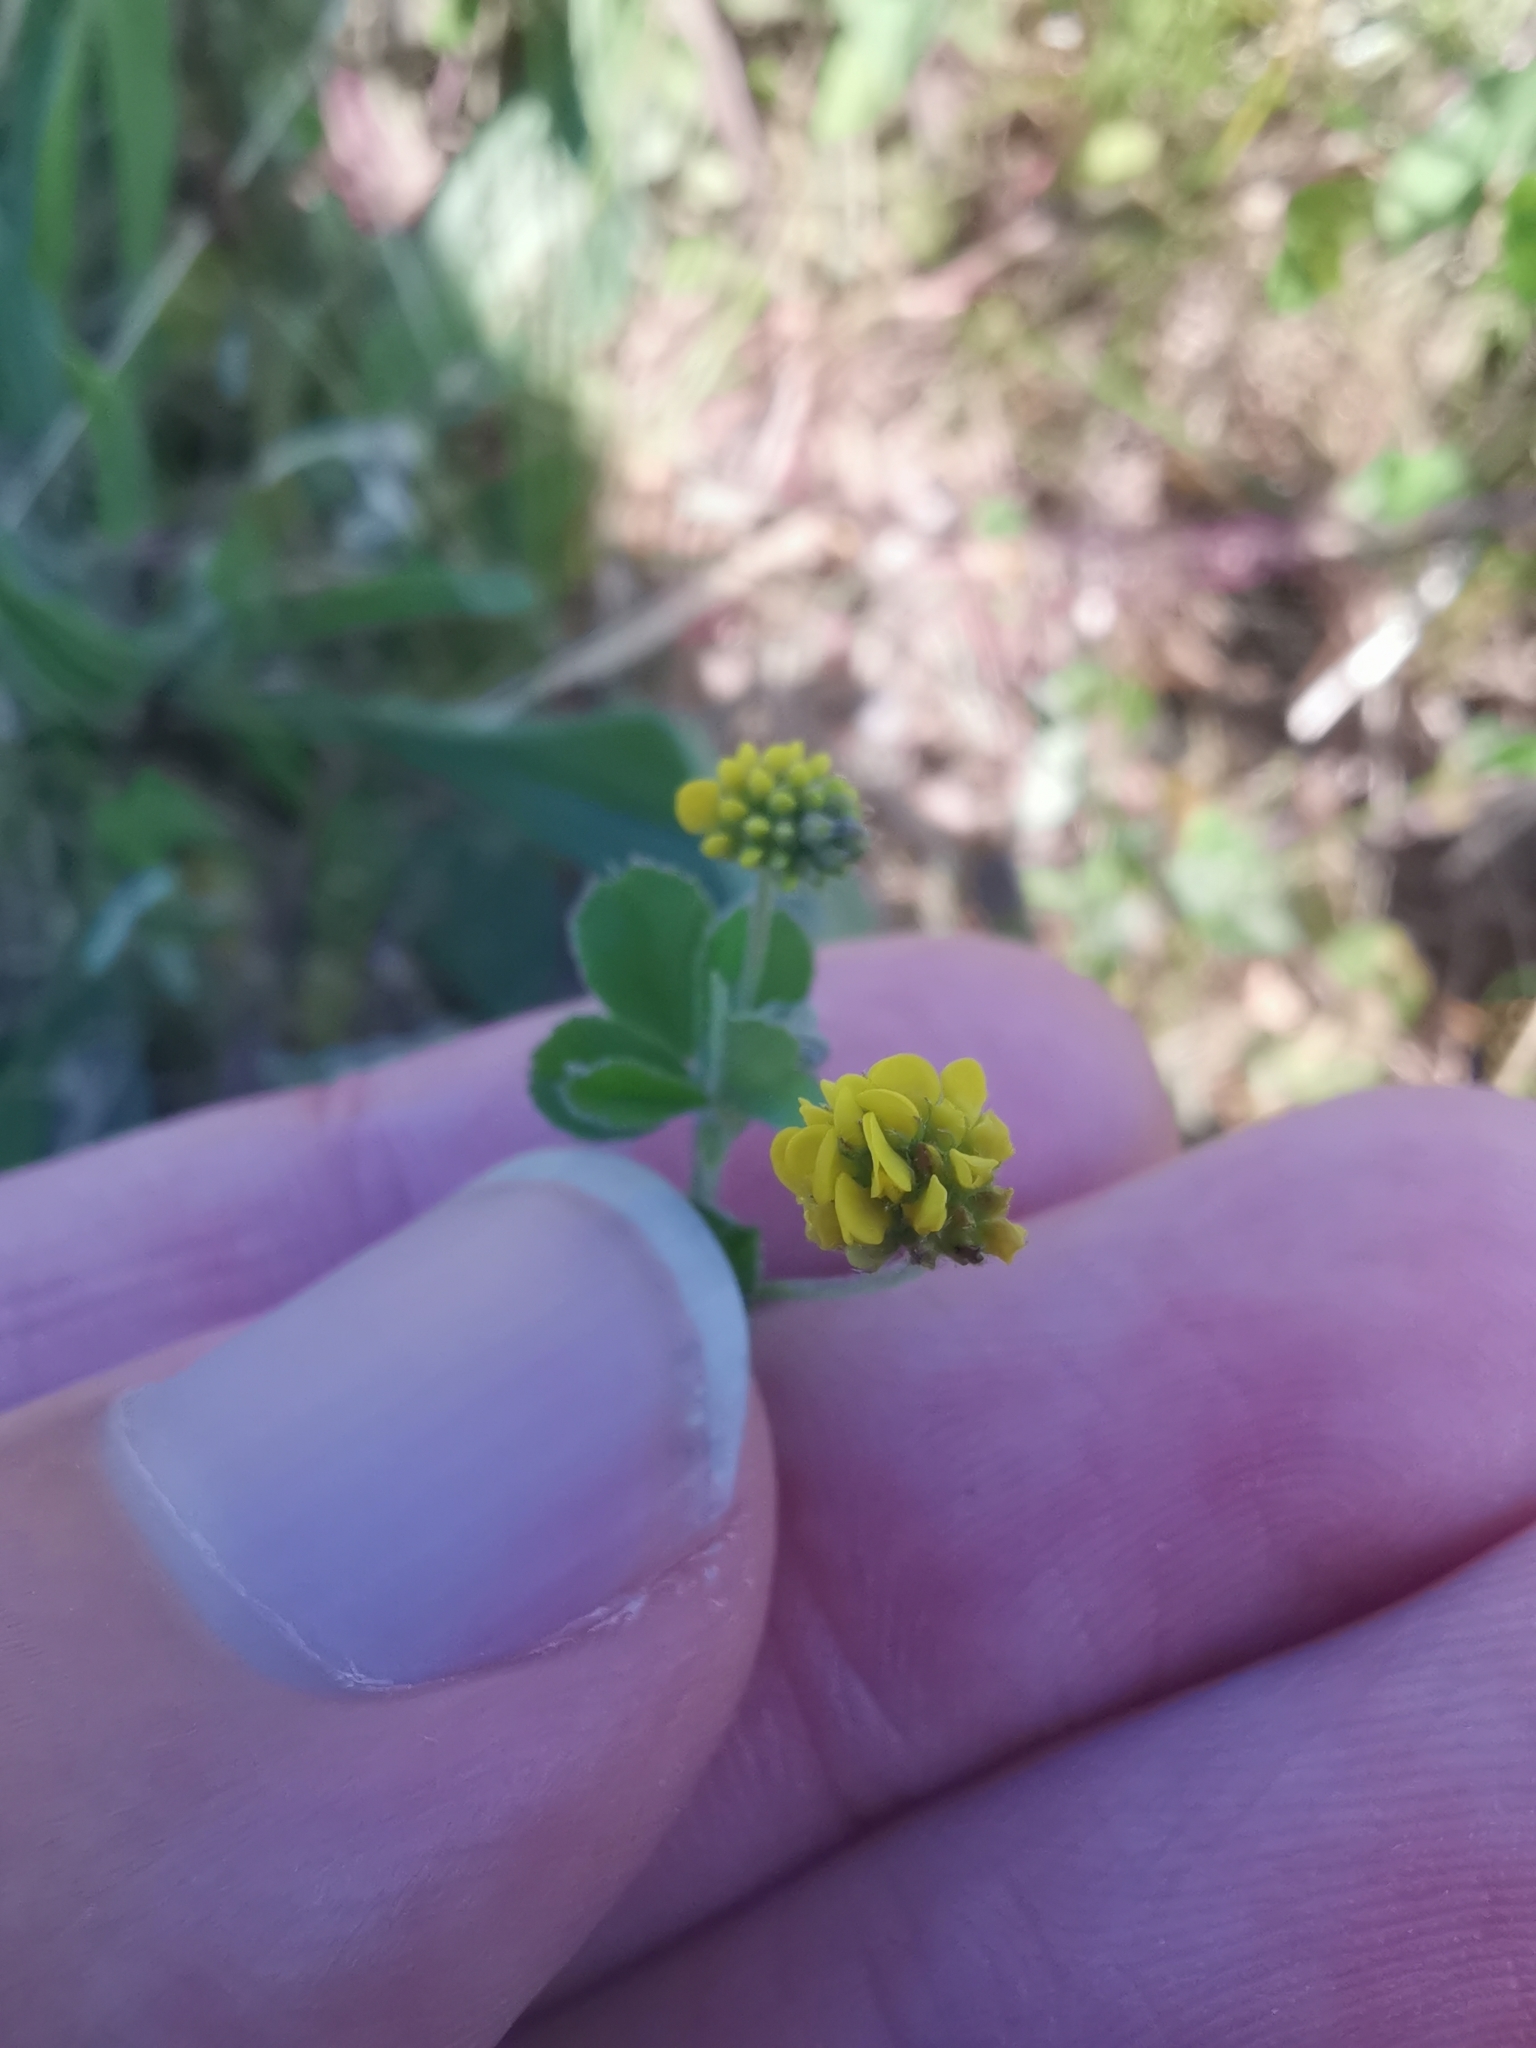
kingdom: Plantae
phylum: Tracheophyta
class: Magnoliopsida
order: Fabales
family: Fabaceae
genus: Medicago
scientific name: Medicago lupulina
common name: Black medick
